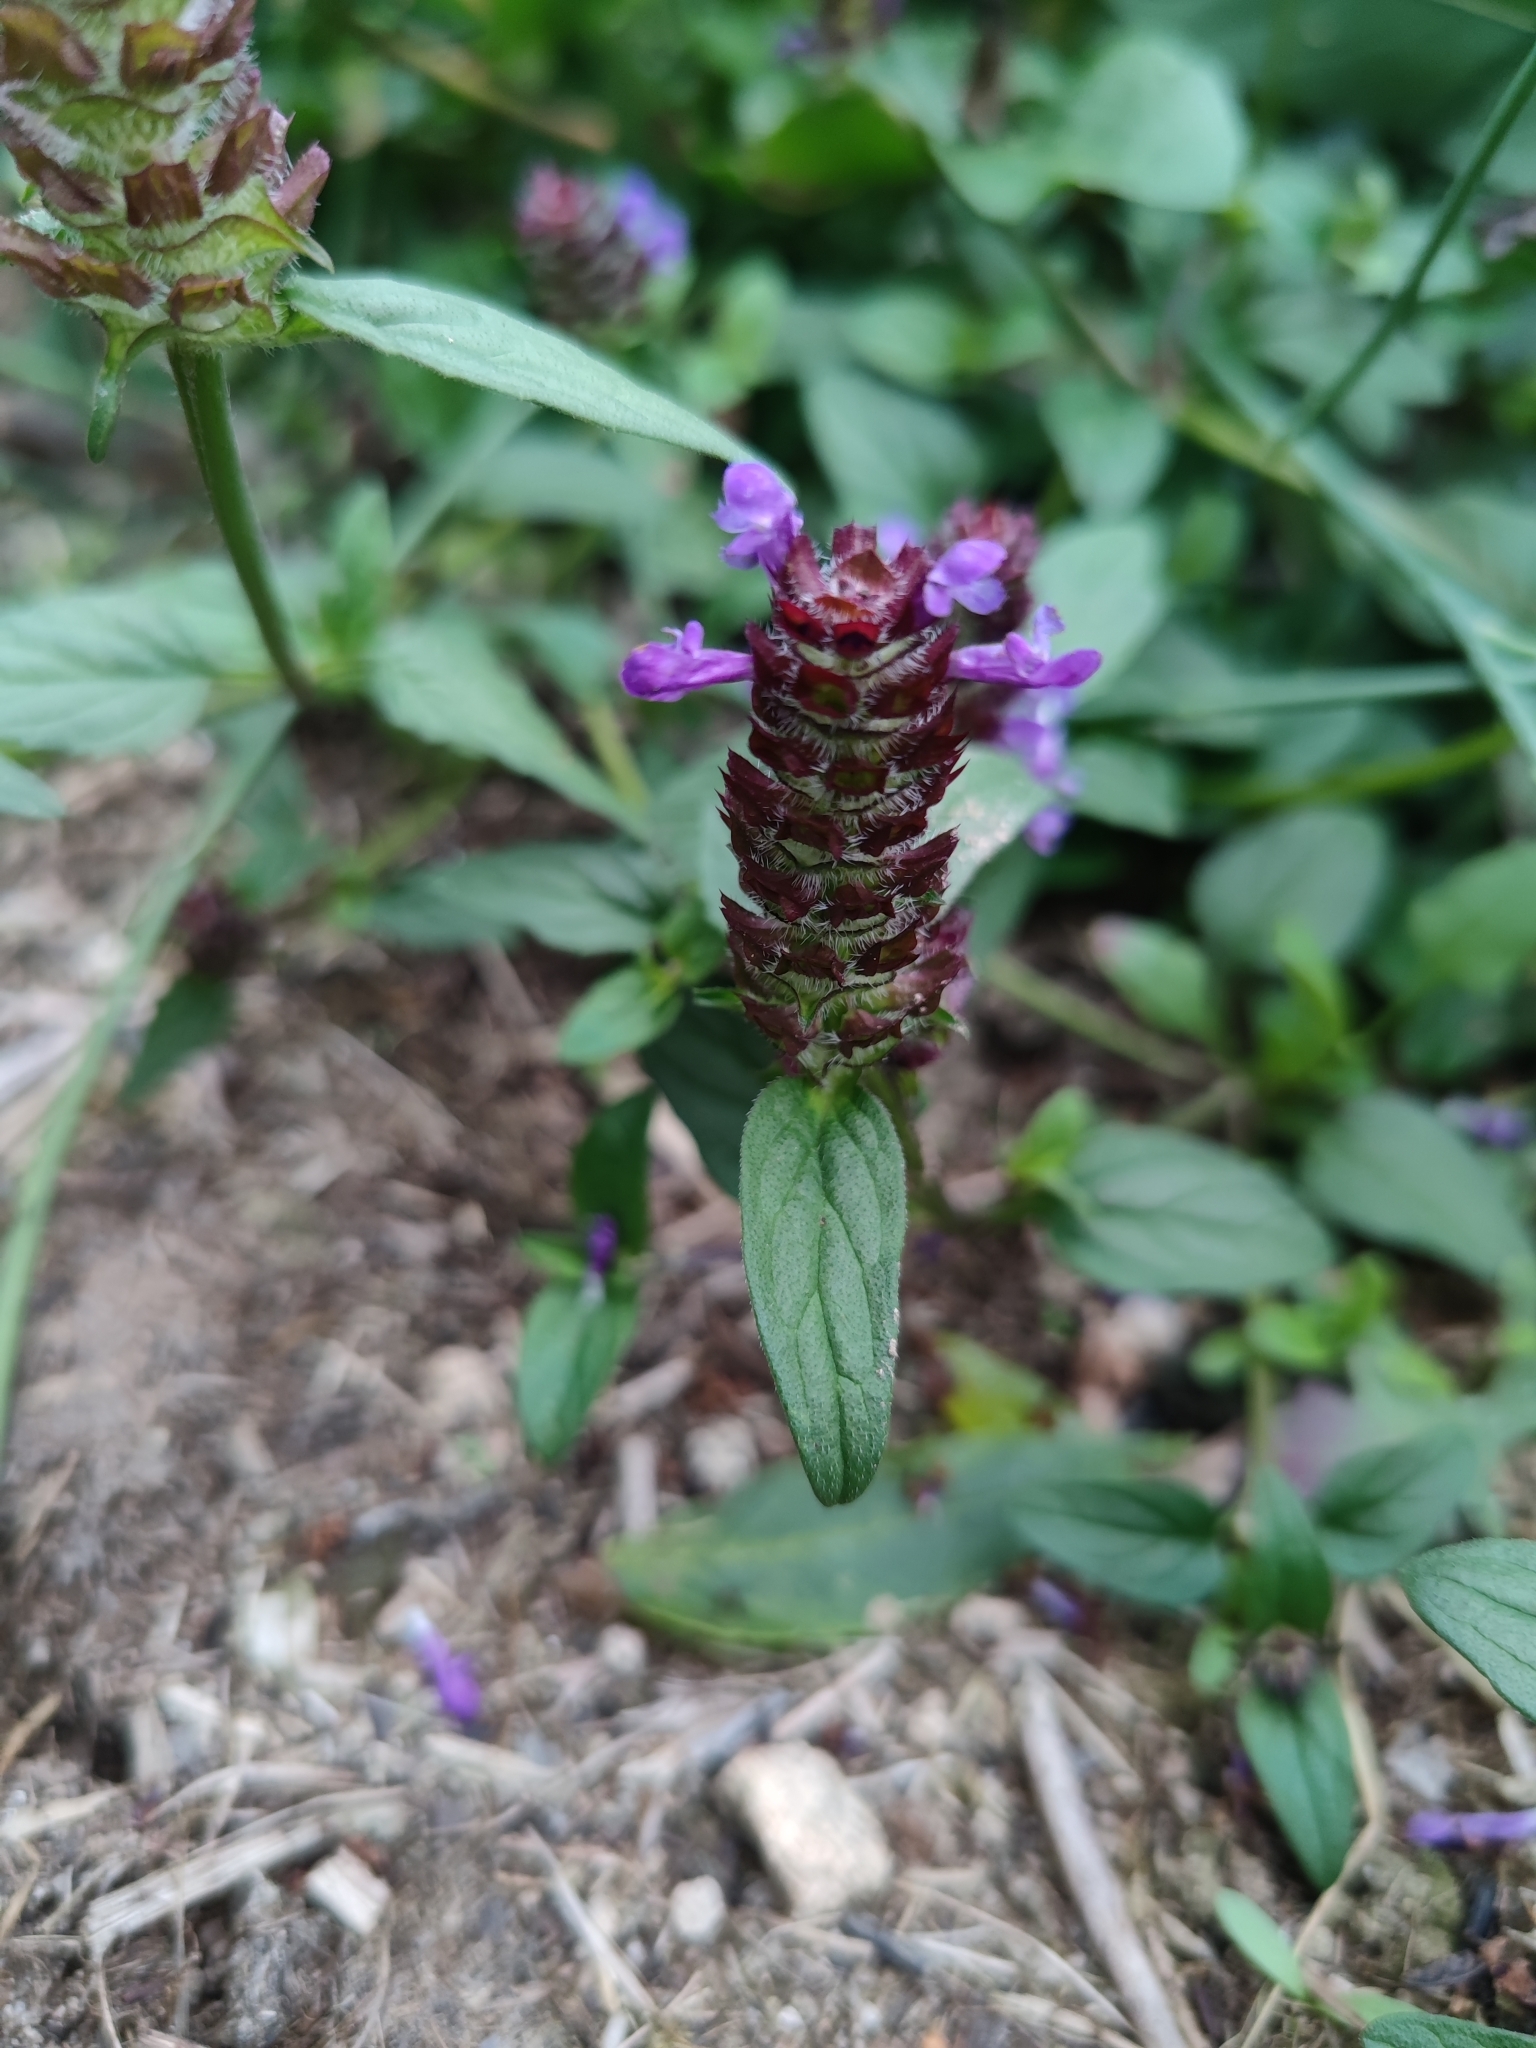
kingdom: Plantae
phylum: Tracheophyta
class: Magnoliopsida
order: Lamiales
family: Lamiaceae
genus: Prunella
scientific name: Prunella vulgaris
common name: Heal-all
